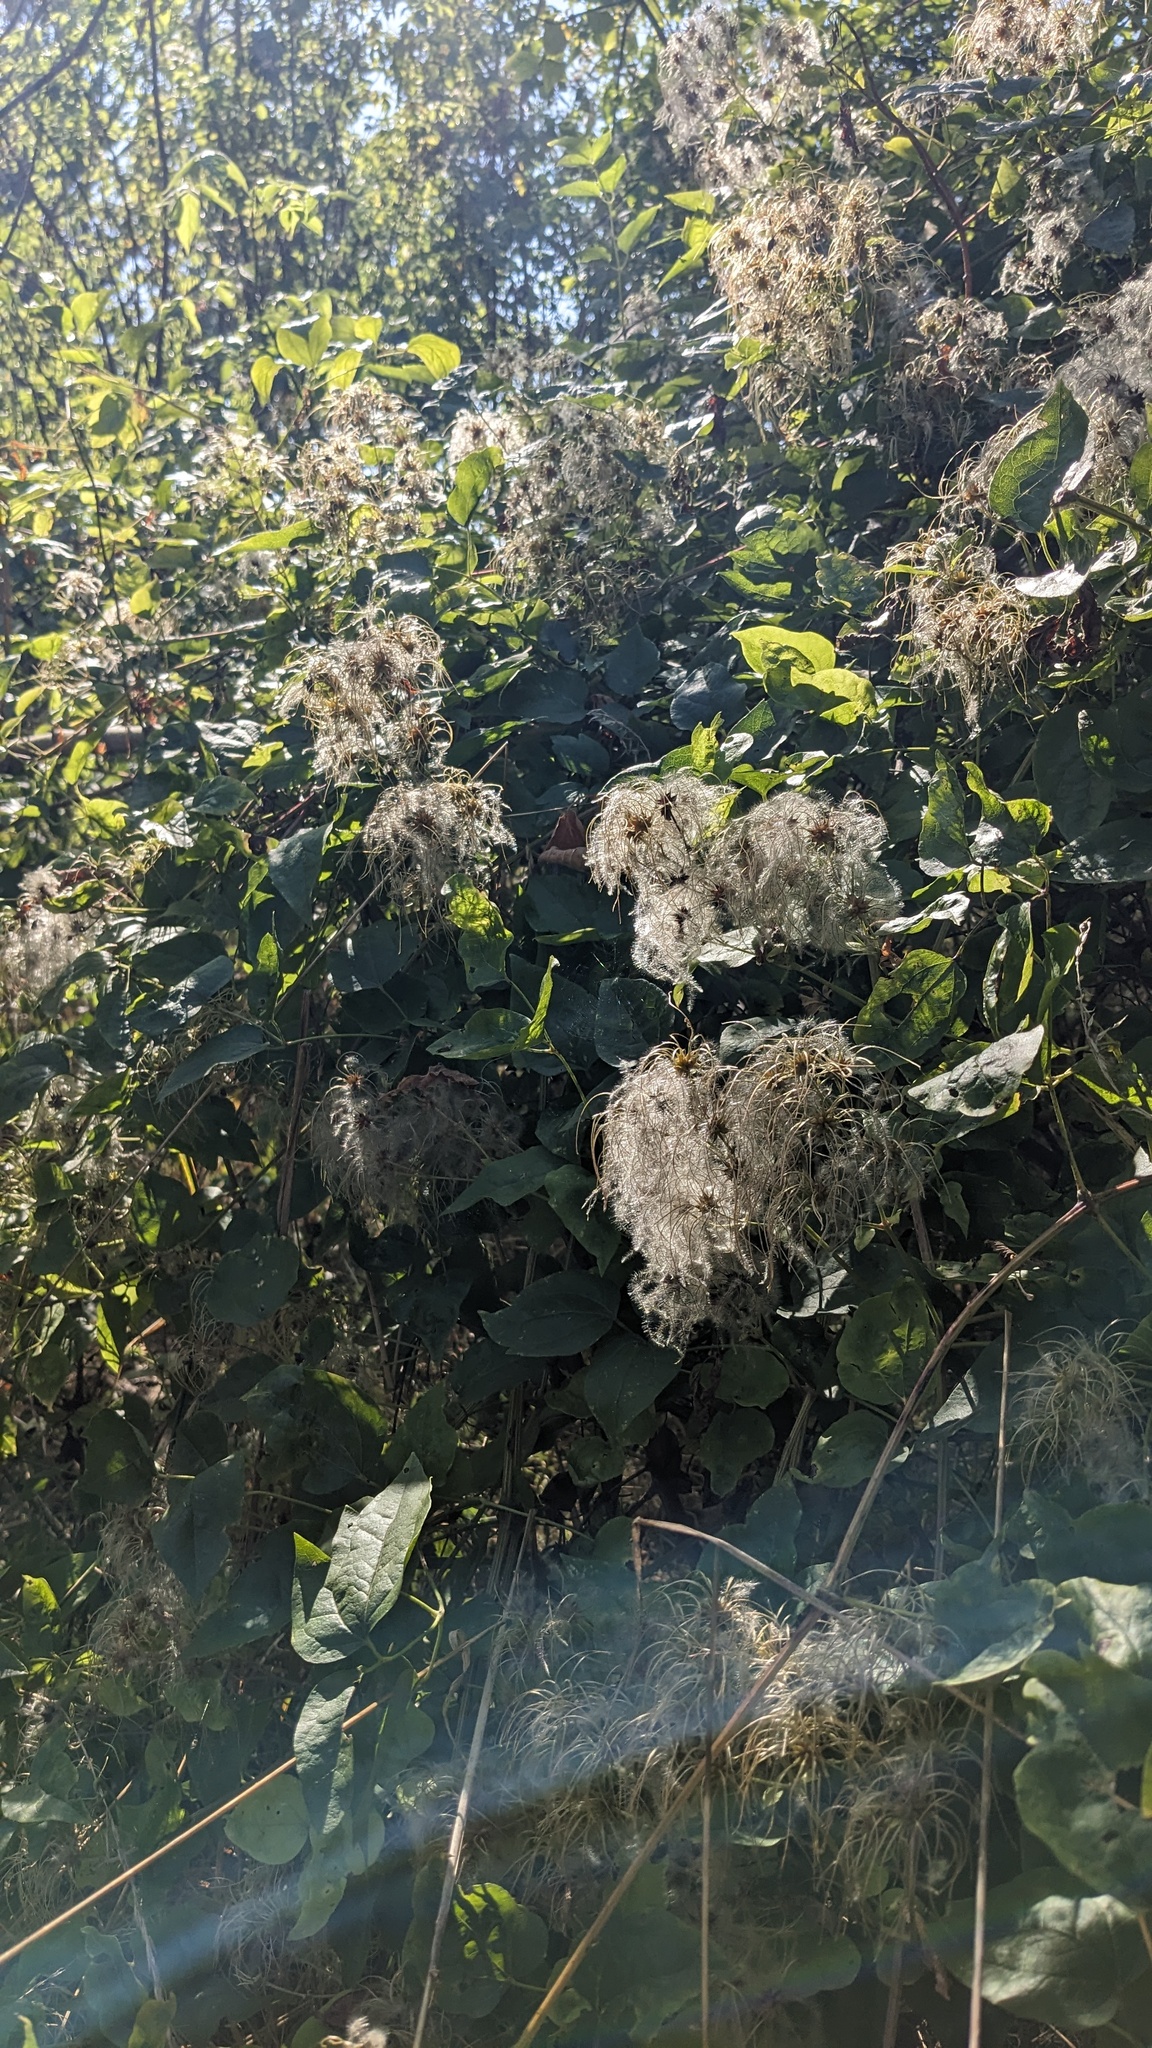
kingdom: Plantae
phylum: Tracheophyta
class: Magnoliopsida
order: Ranunculales
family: Ranunculaceae
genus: Clematis
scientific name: Clematis vitalba
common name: Evergreen clematis
